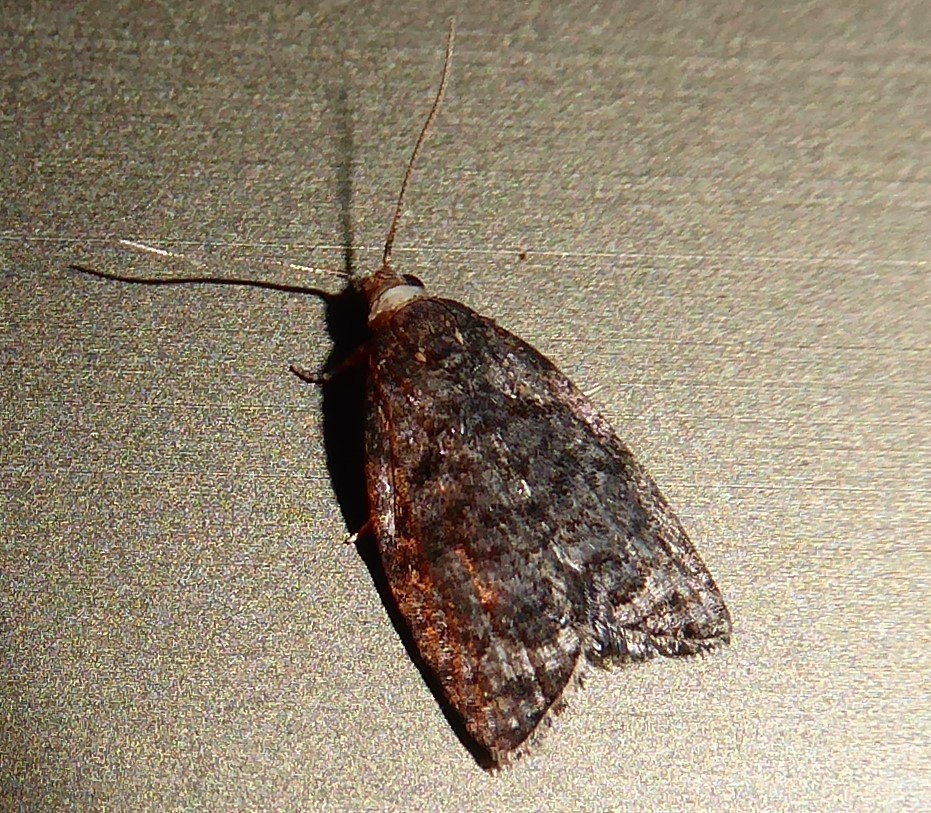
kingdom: Animalia
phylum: Arthropoda
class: Insecta
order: Lepidoptera
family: Tortricidae
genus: Capua
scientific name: Capua semiferana
